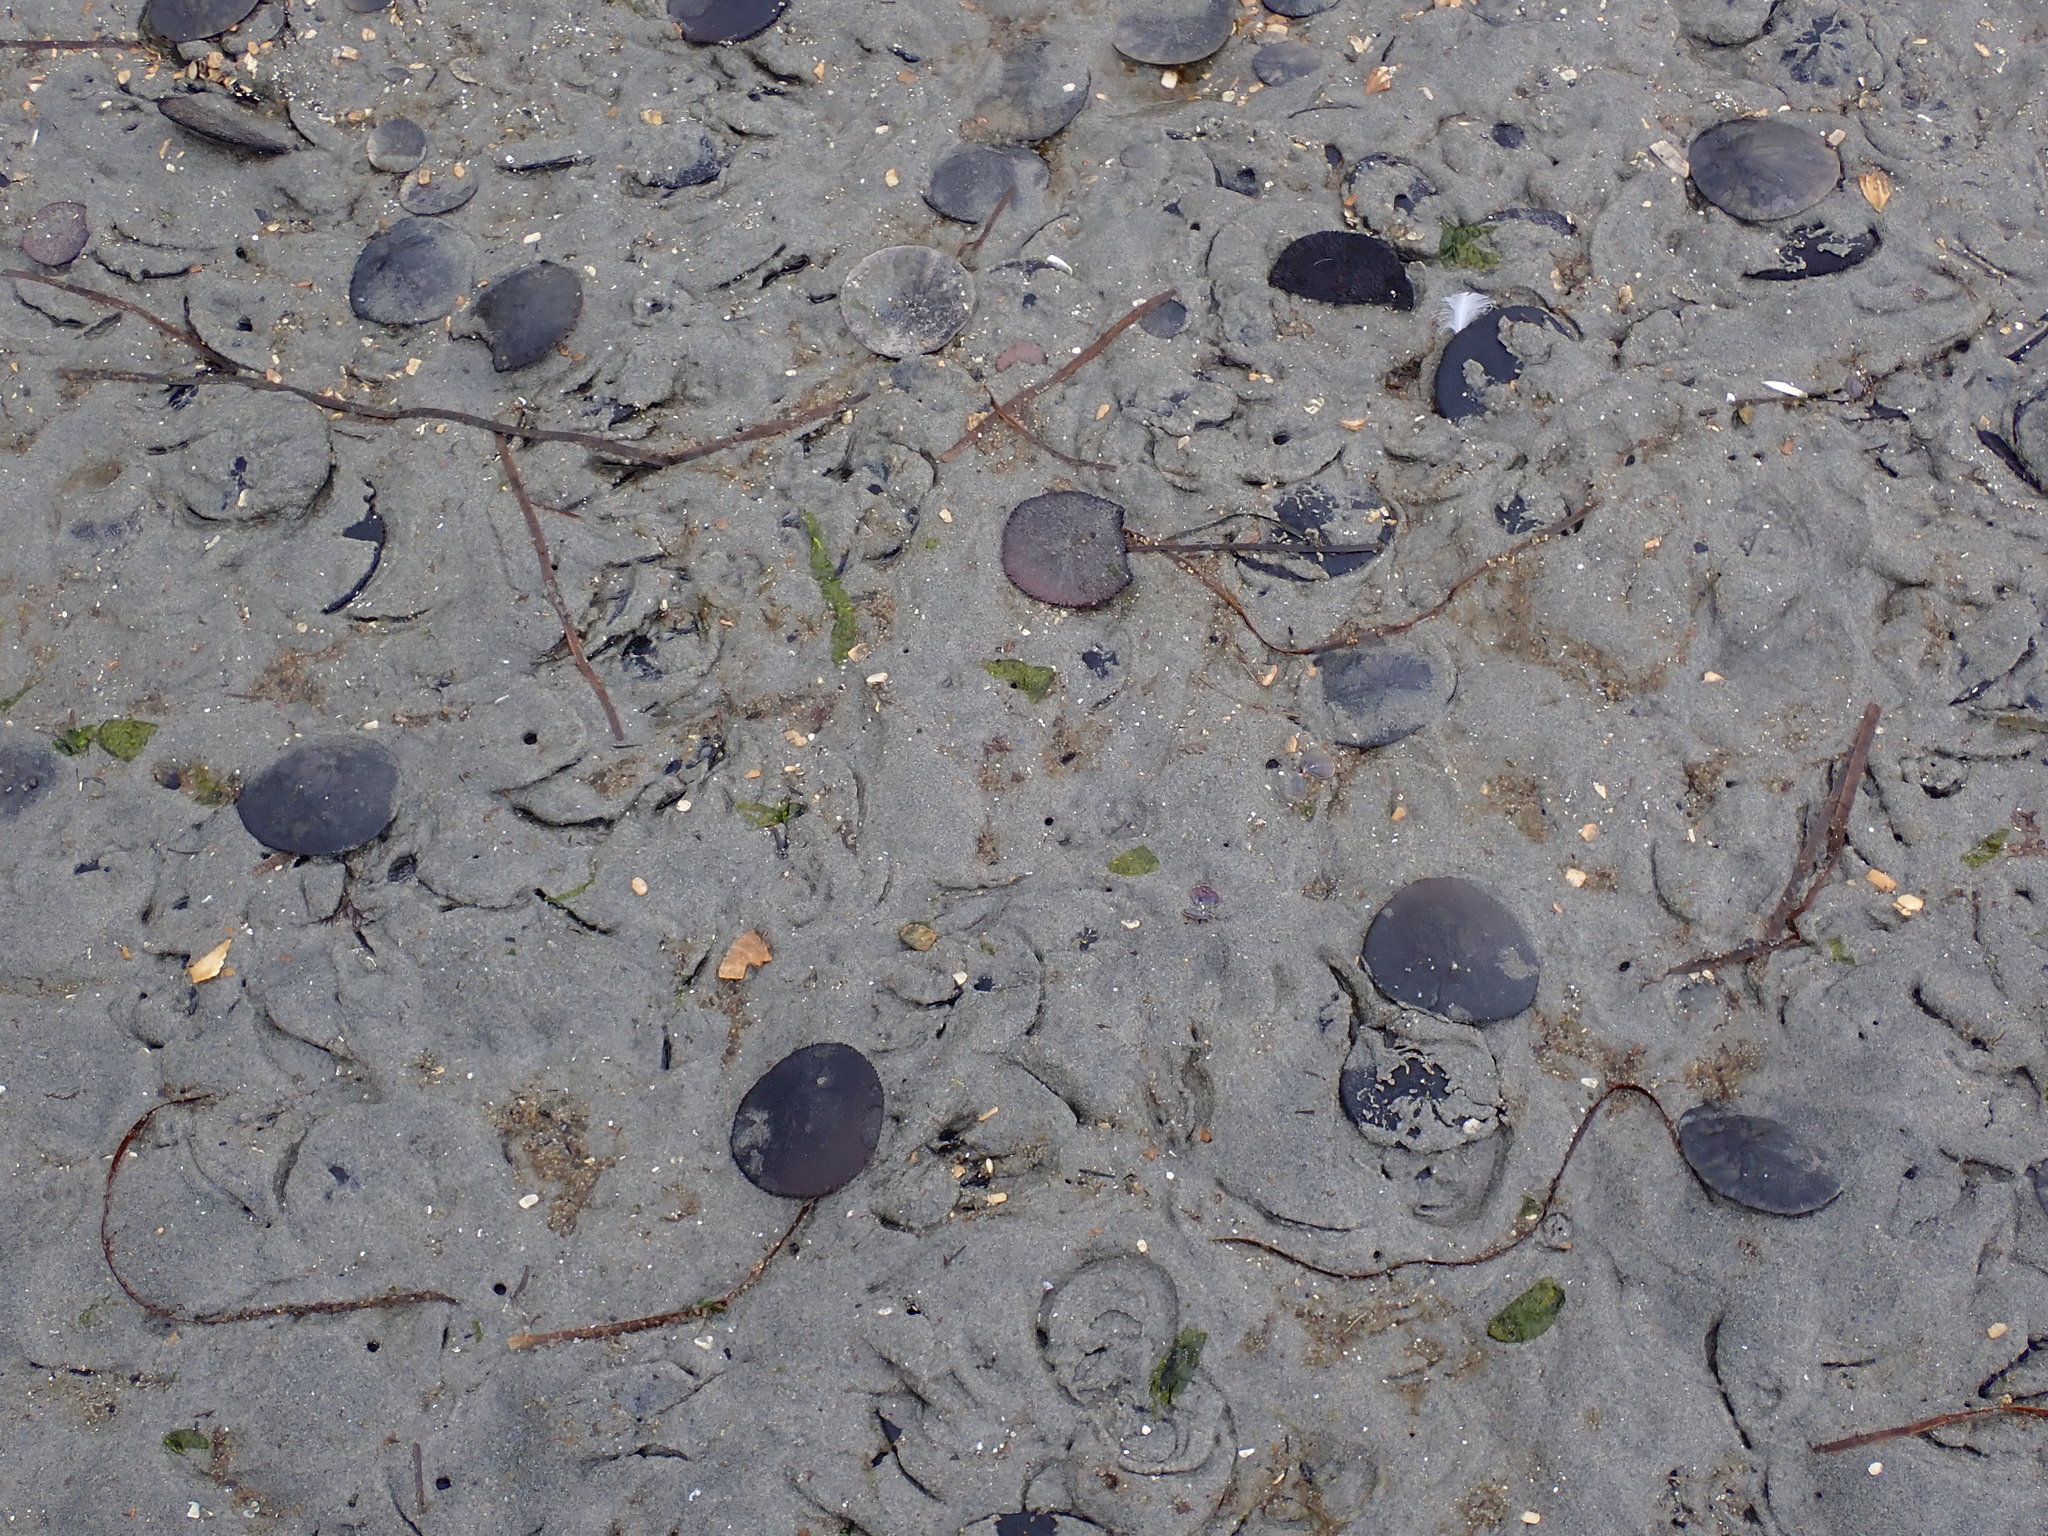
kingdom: Animalia
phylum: Echinodermata
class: Echinoidea
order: Echinolampadacea
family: Dendrasteridae
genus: Dendraster
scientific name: Dendraster excentricus
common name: Eccentric sand dollar sea urchin
